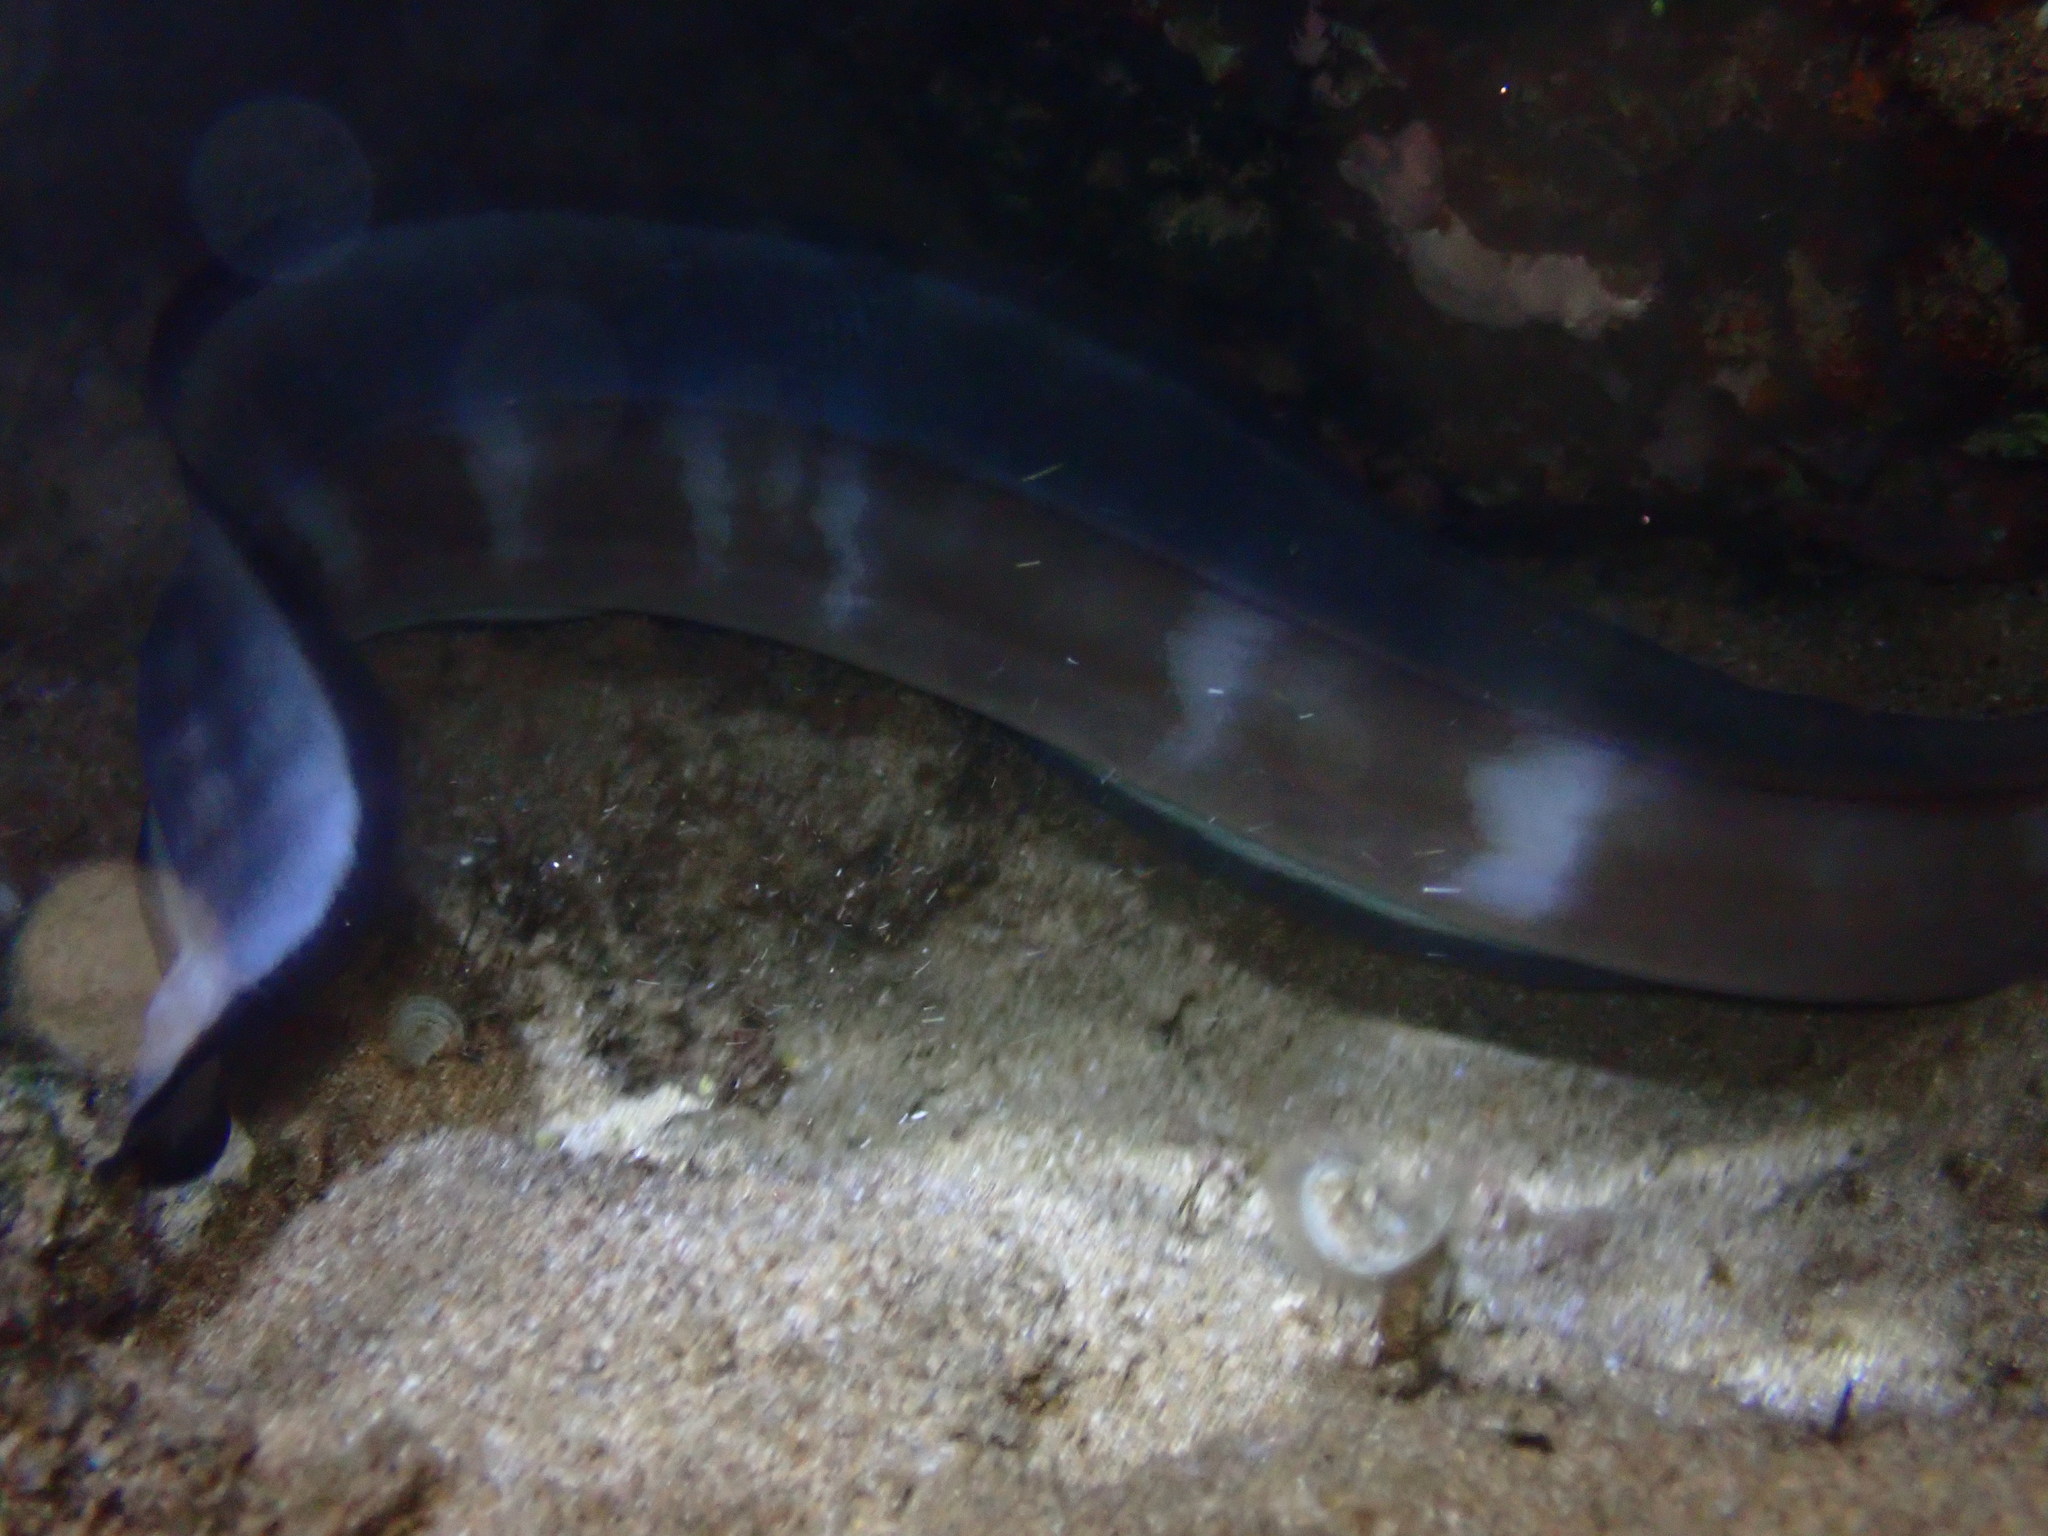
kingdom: Animalia
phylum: Chordata
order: Anguilliformes
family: Congridae
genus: Conger
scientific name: Conger marginatus
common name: Ash-colored conger eel
